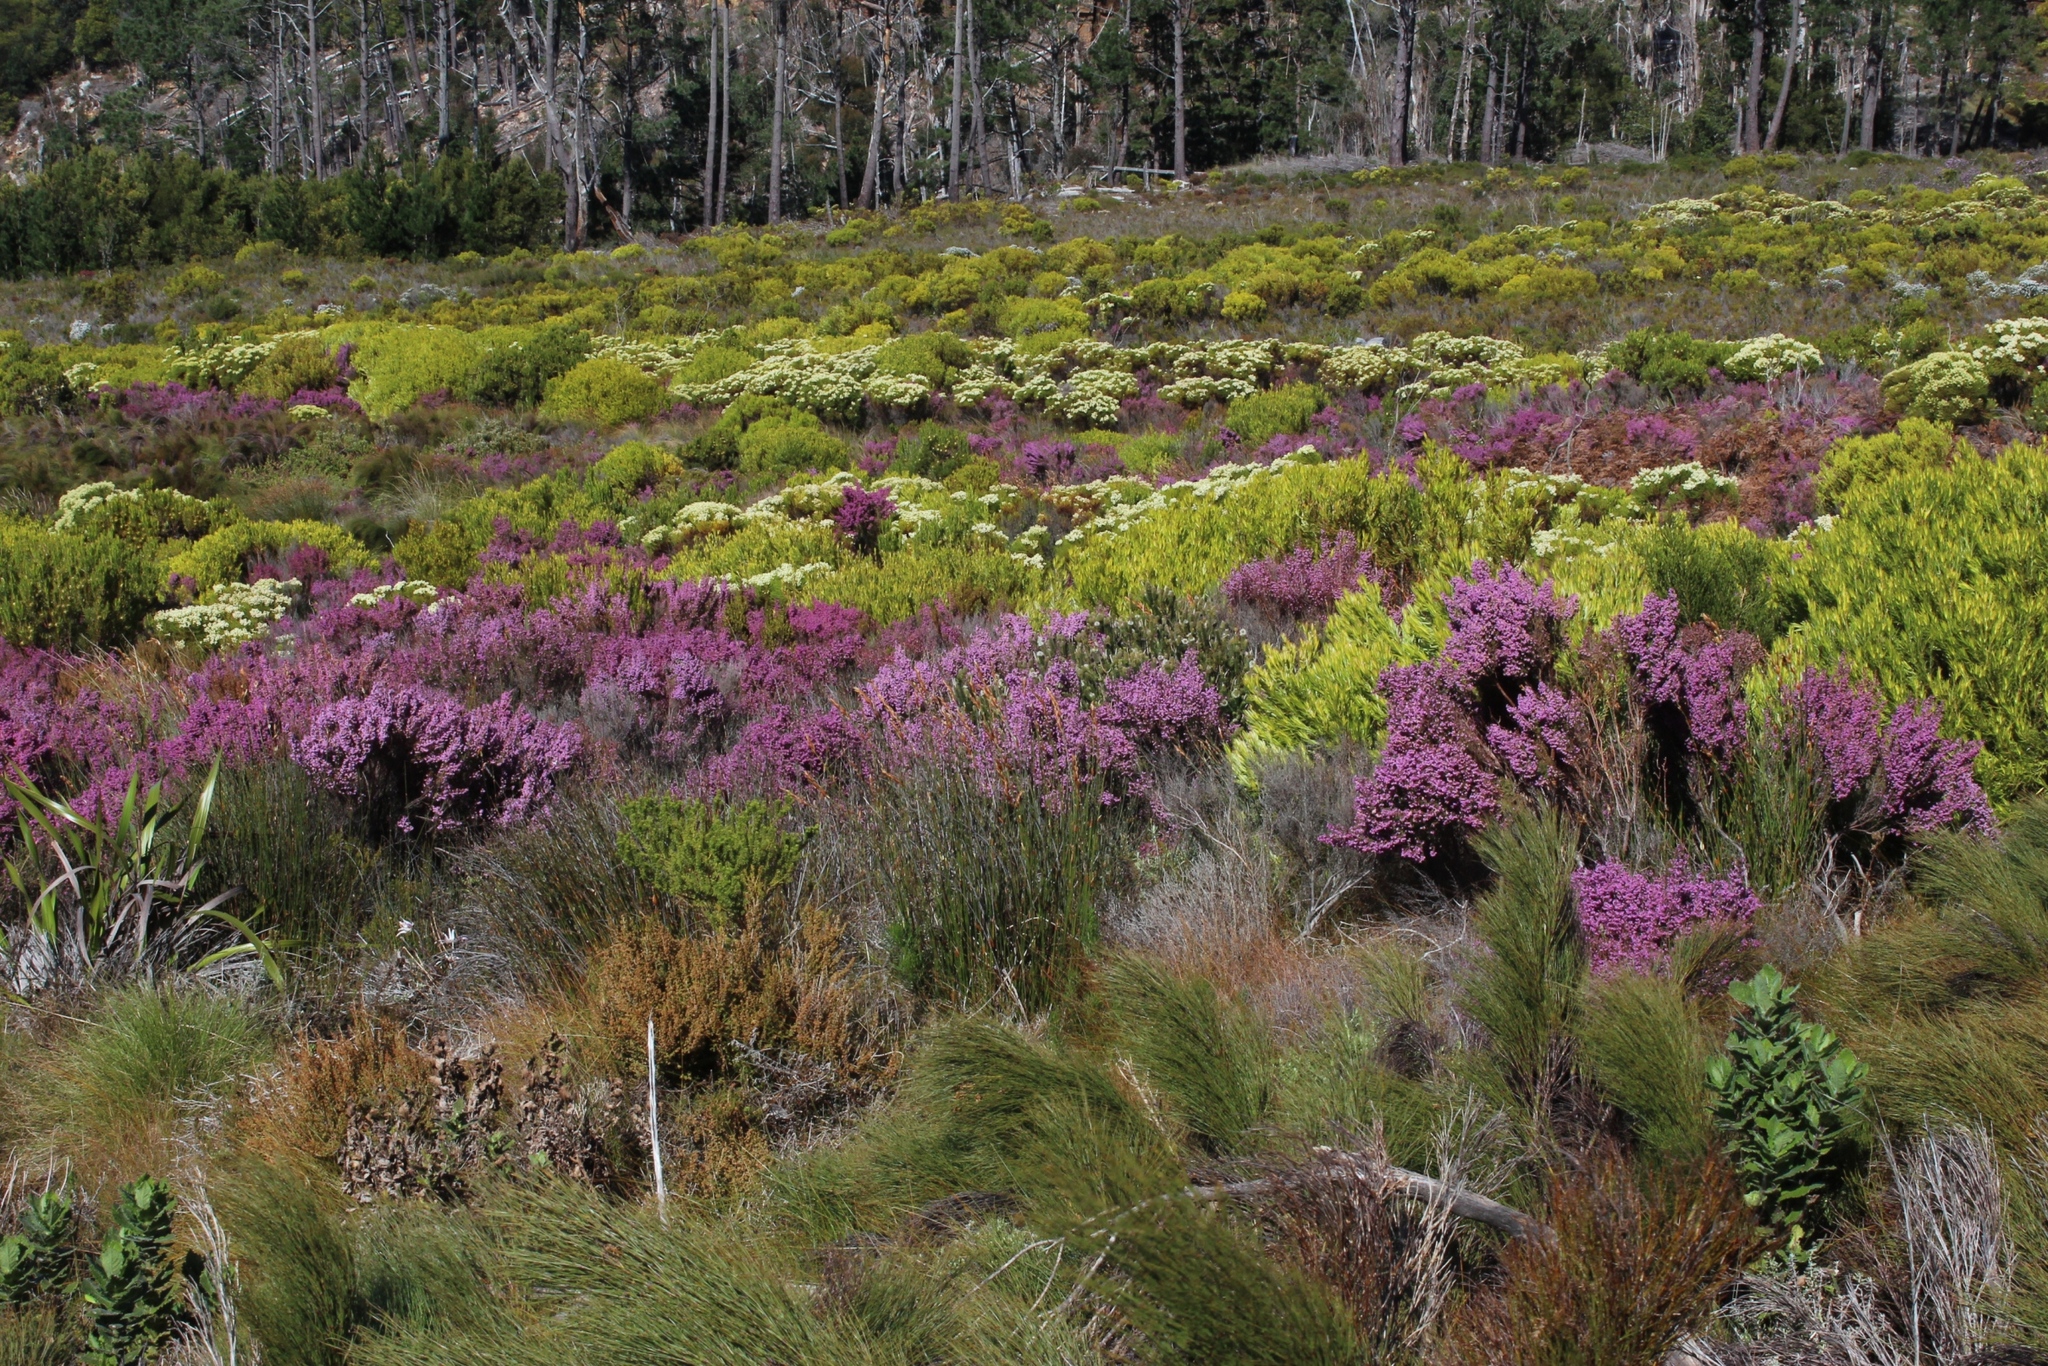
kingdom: Plantae
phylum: Tracheophyta
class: Magnoliopsida
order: Ericales
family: Ericaceae
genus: Erica
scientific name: Erica hirtiflora
